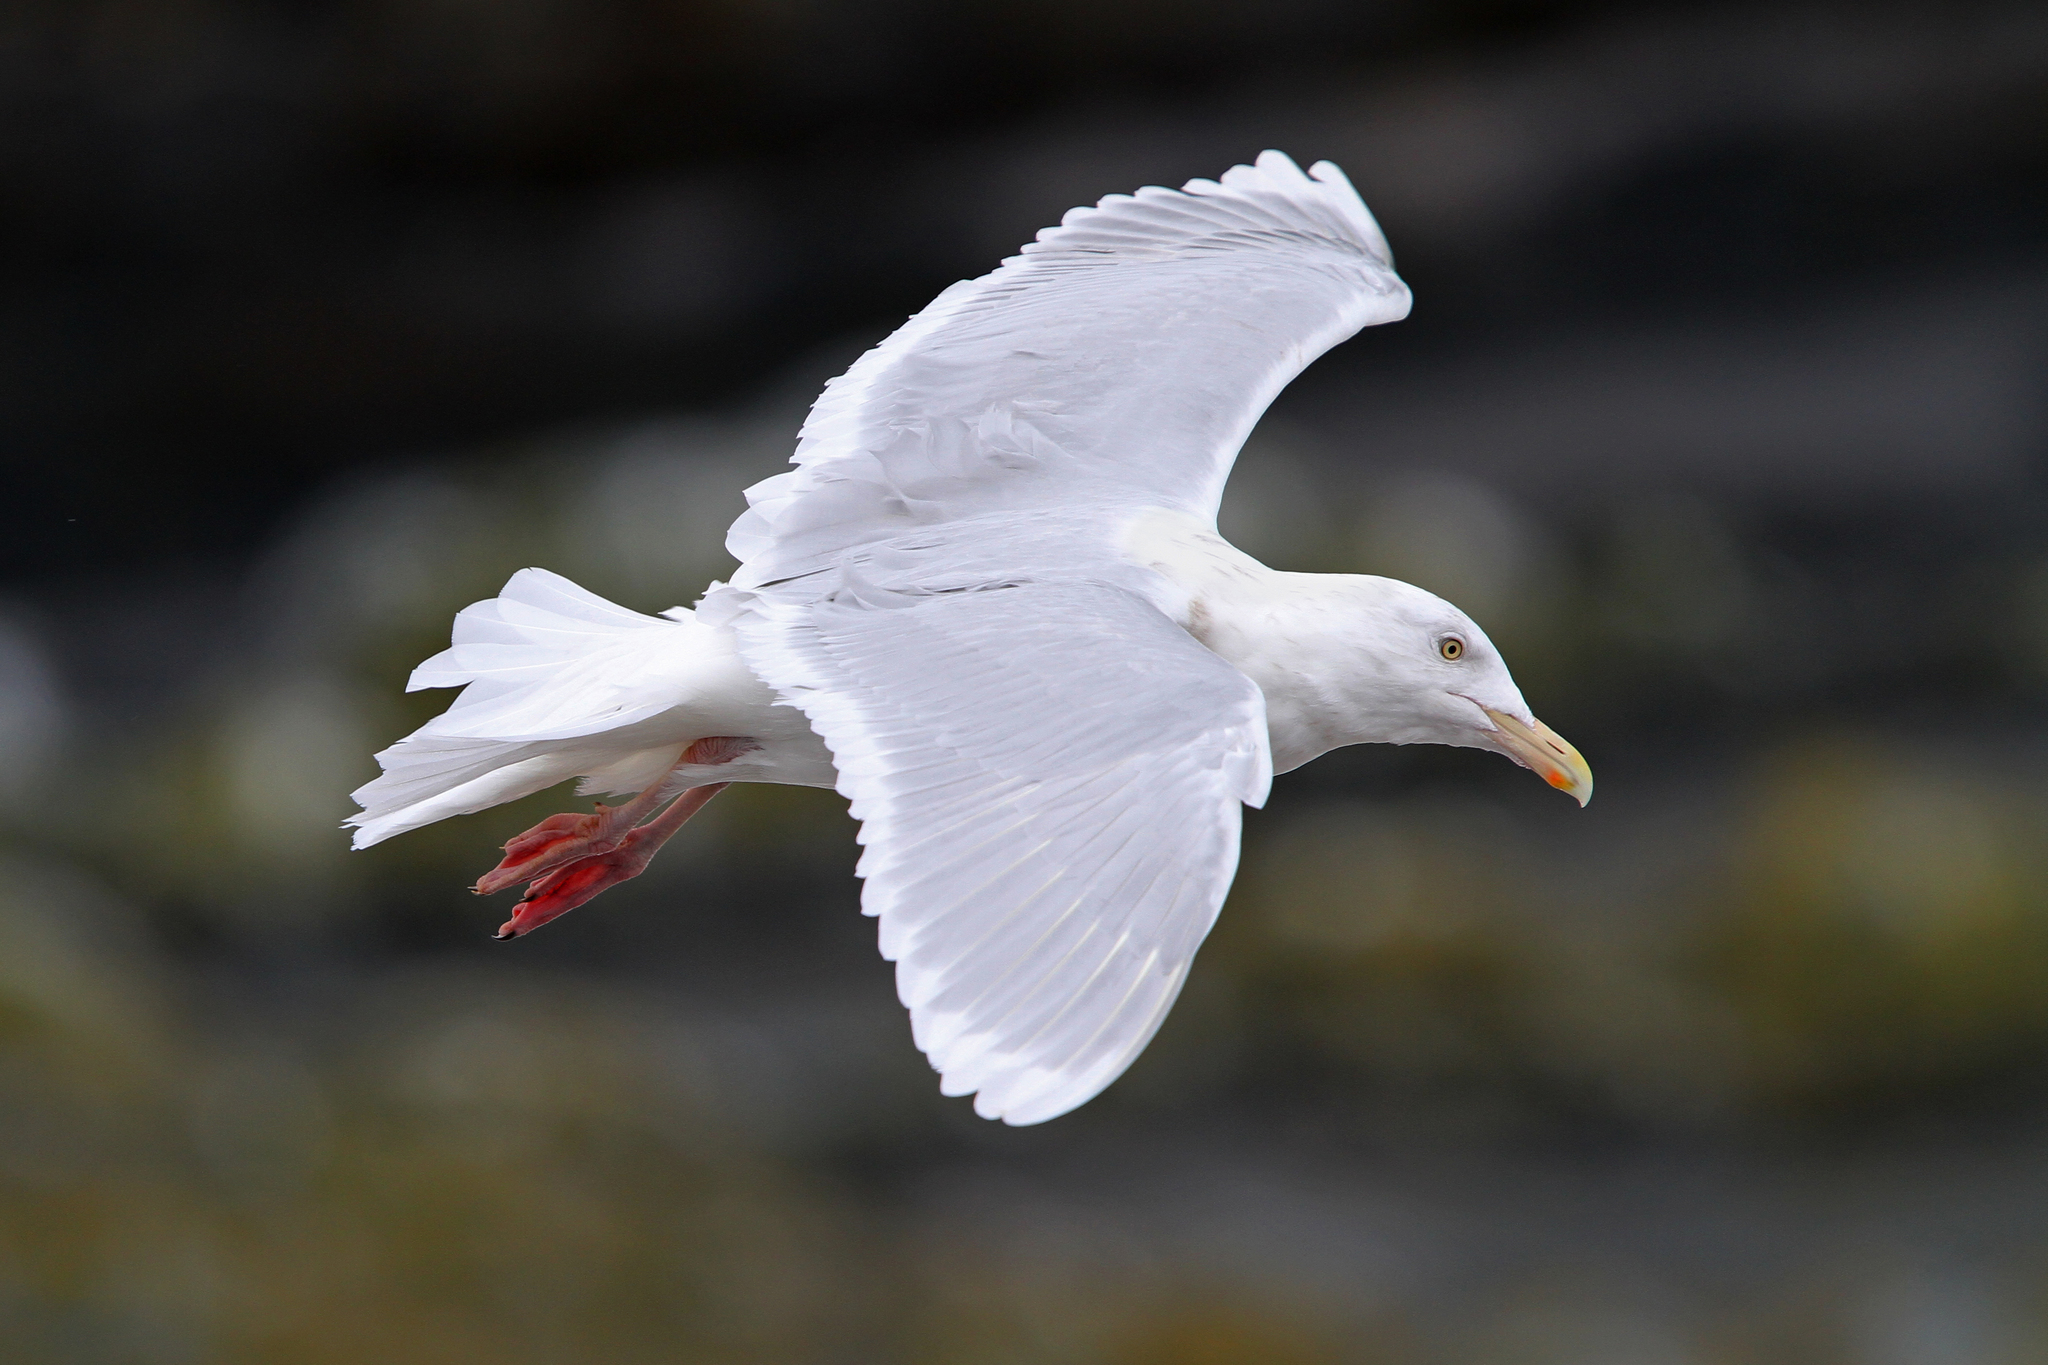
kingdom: Animalia
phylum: Chordata
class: Aves
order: Charadriiformes
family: Laridae
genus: Larus
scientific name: Larus hyperboreus
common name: Glaucous gull
